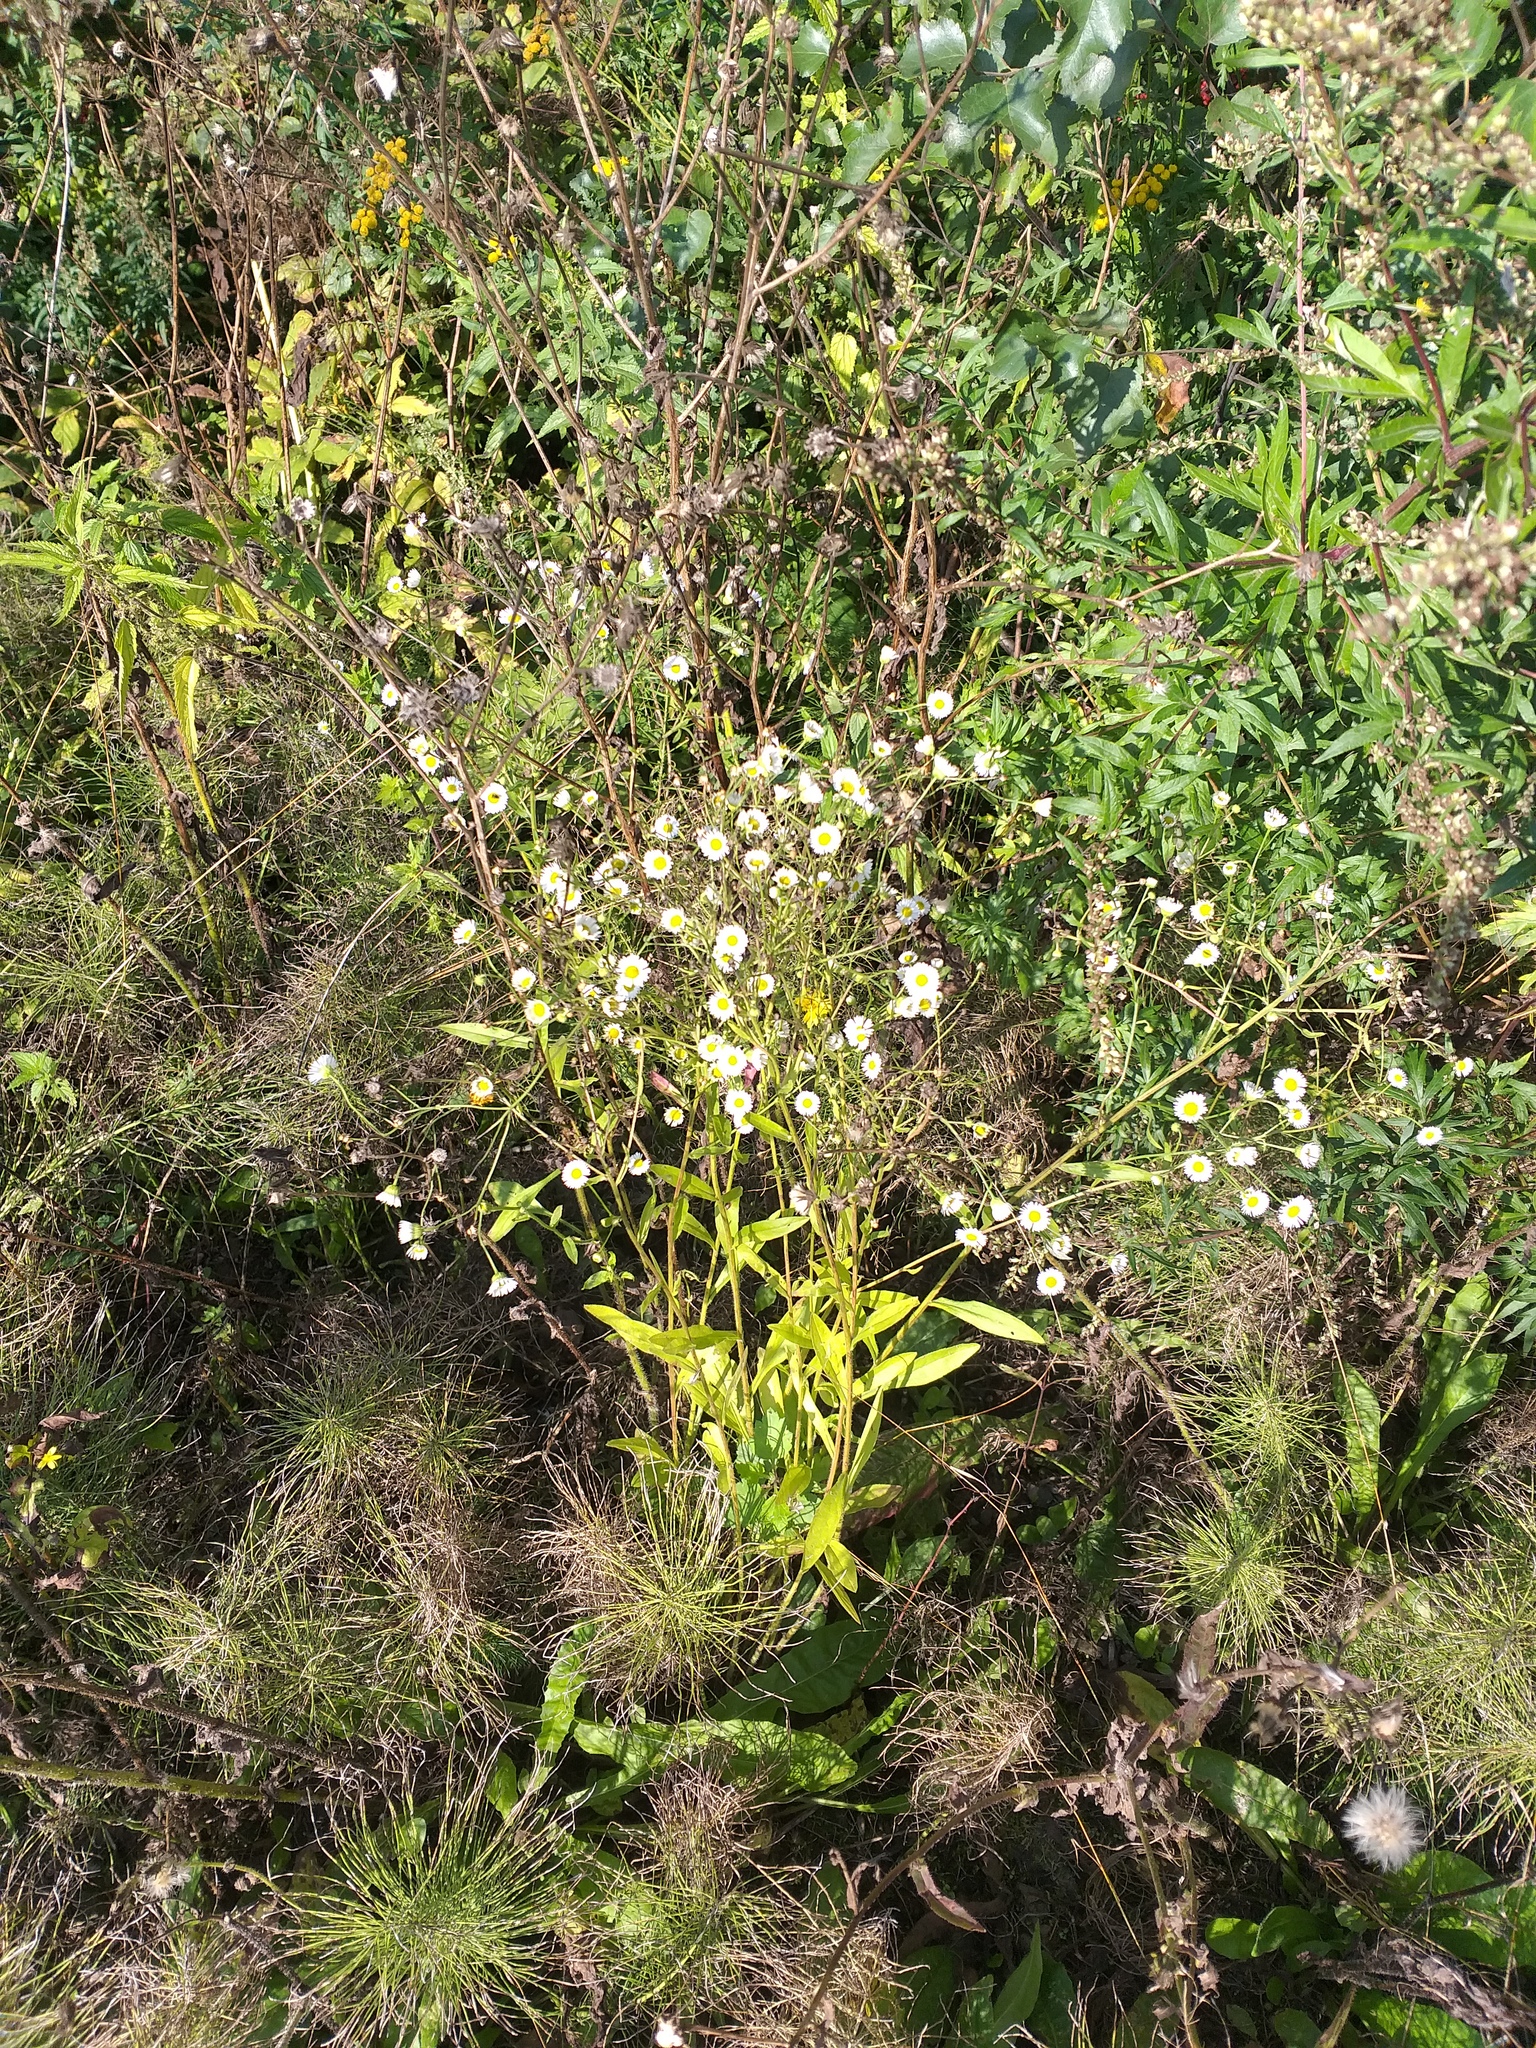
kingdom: Plantae
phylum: Tracheophyta
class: Magnoliopsida
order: Asterales
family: Asteraceae
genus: Erigeron
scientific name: Erigeron annuus
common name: Tall fleabane
